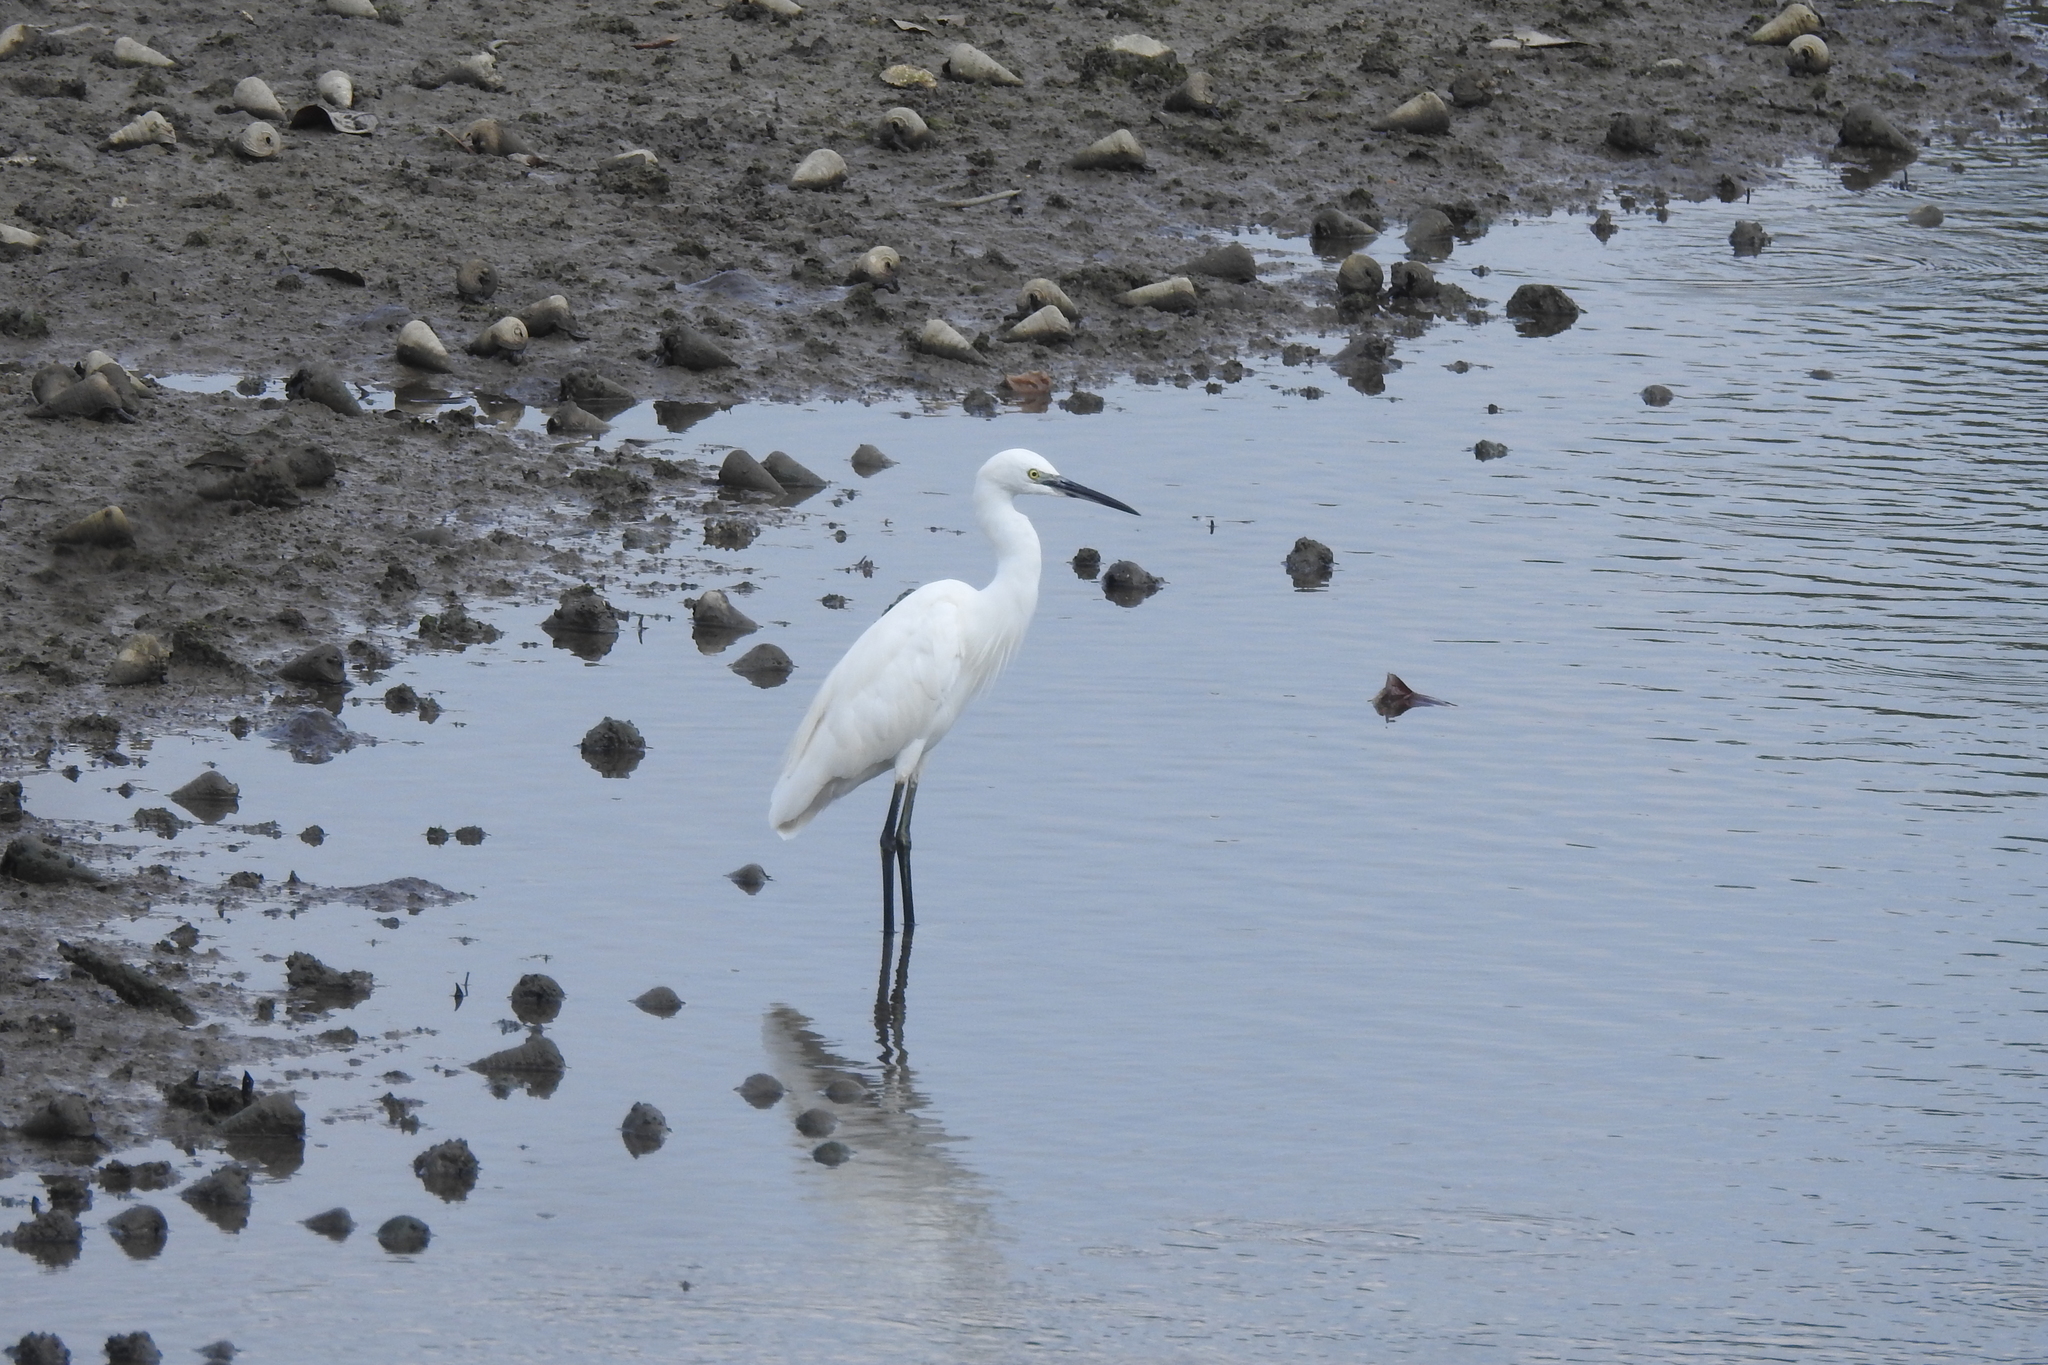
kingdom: Animalia
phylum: Chordata
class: Aves
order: Pelecaniformes
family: Ardeidae
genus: Egretta
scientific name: Egretta garzetta
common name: Little egret
